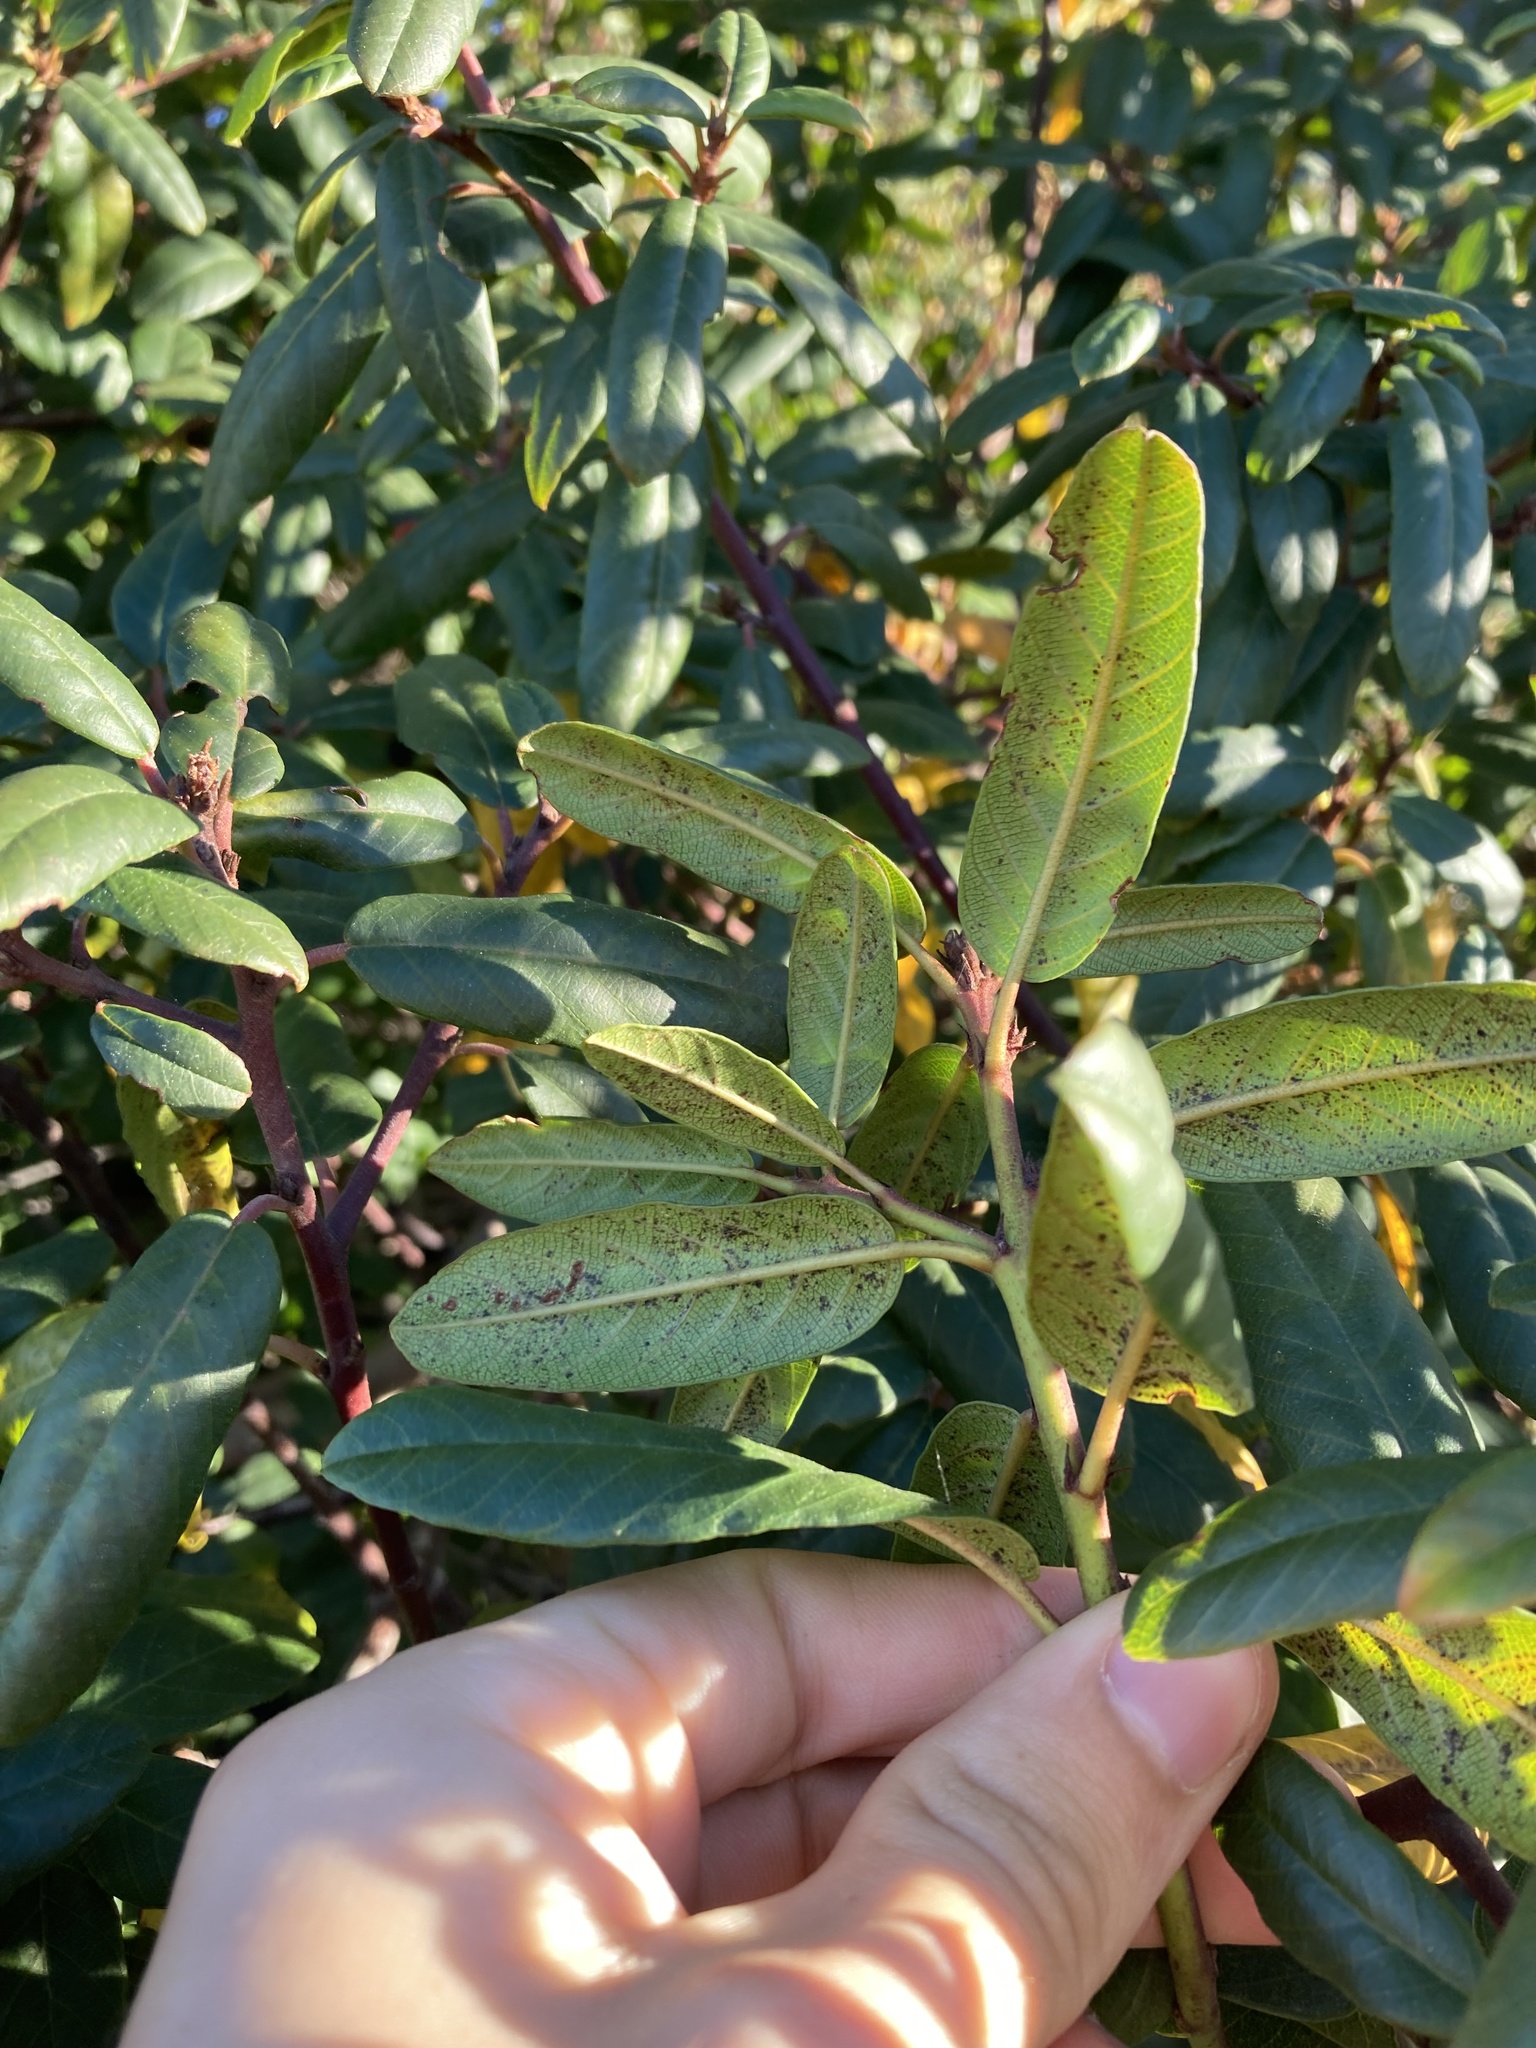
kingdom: Plantae
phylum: Tracheophyta
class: Magnoliopsida
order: Rosales
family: Rhamnaceae
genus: Frangula
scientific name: Frangula californica
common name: California buckthorn
